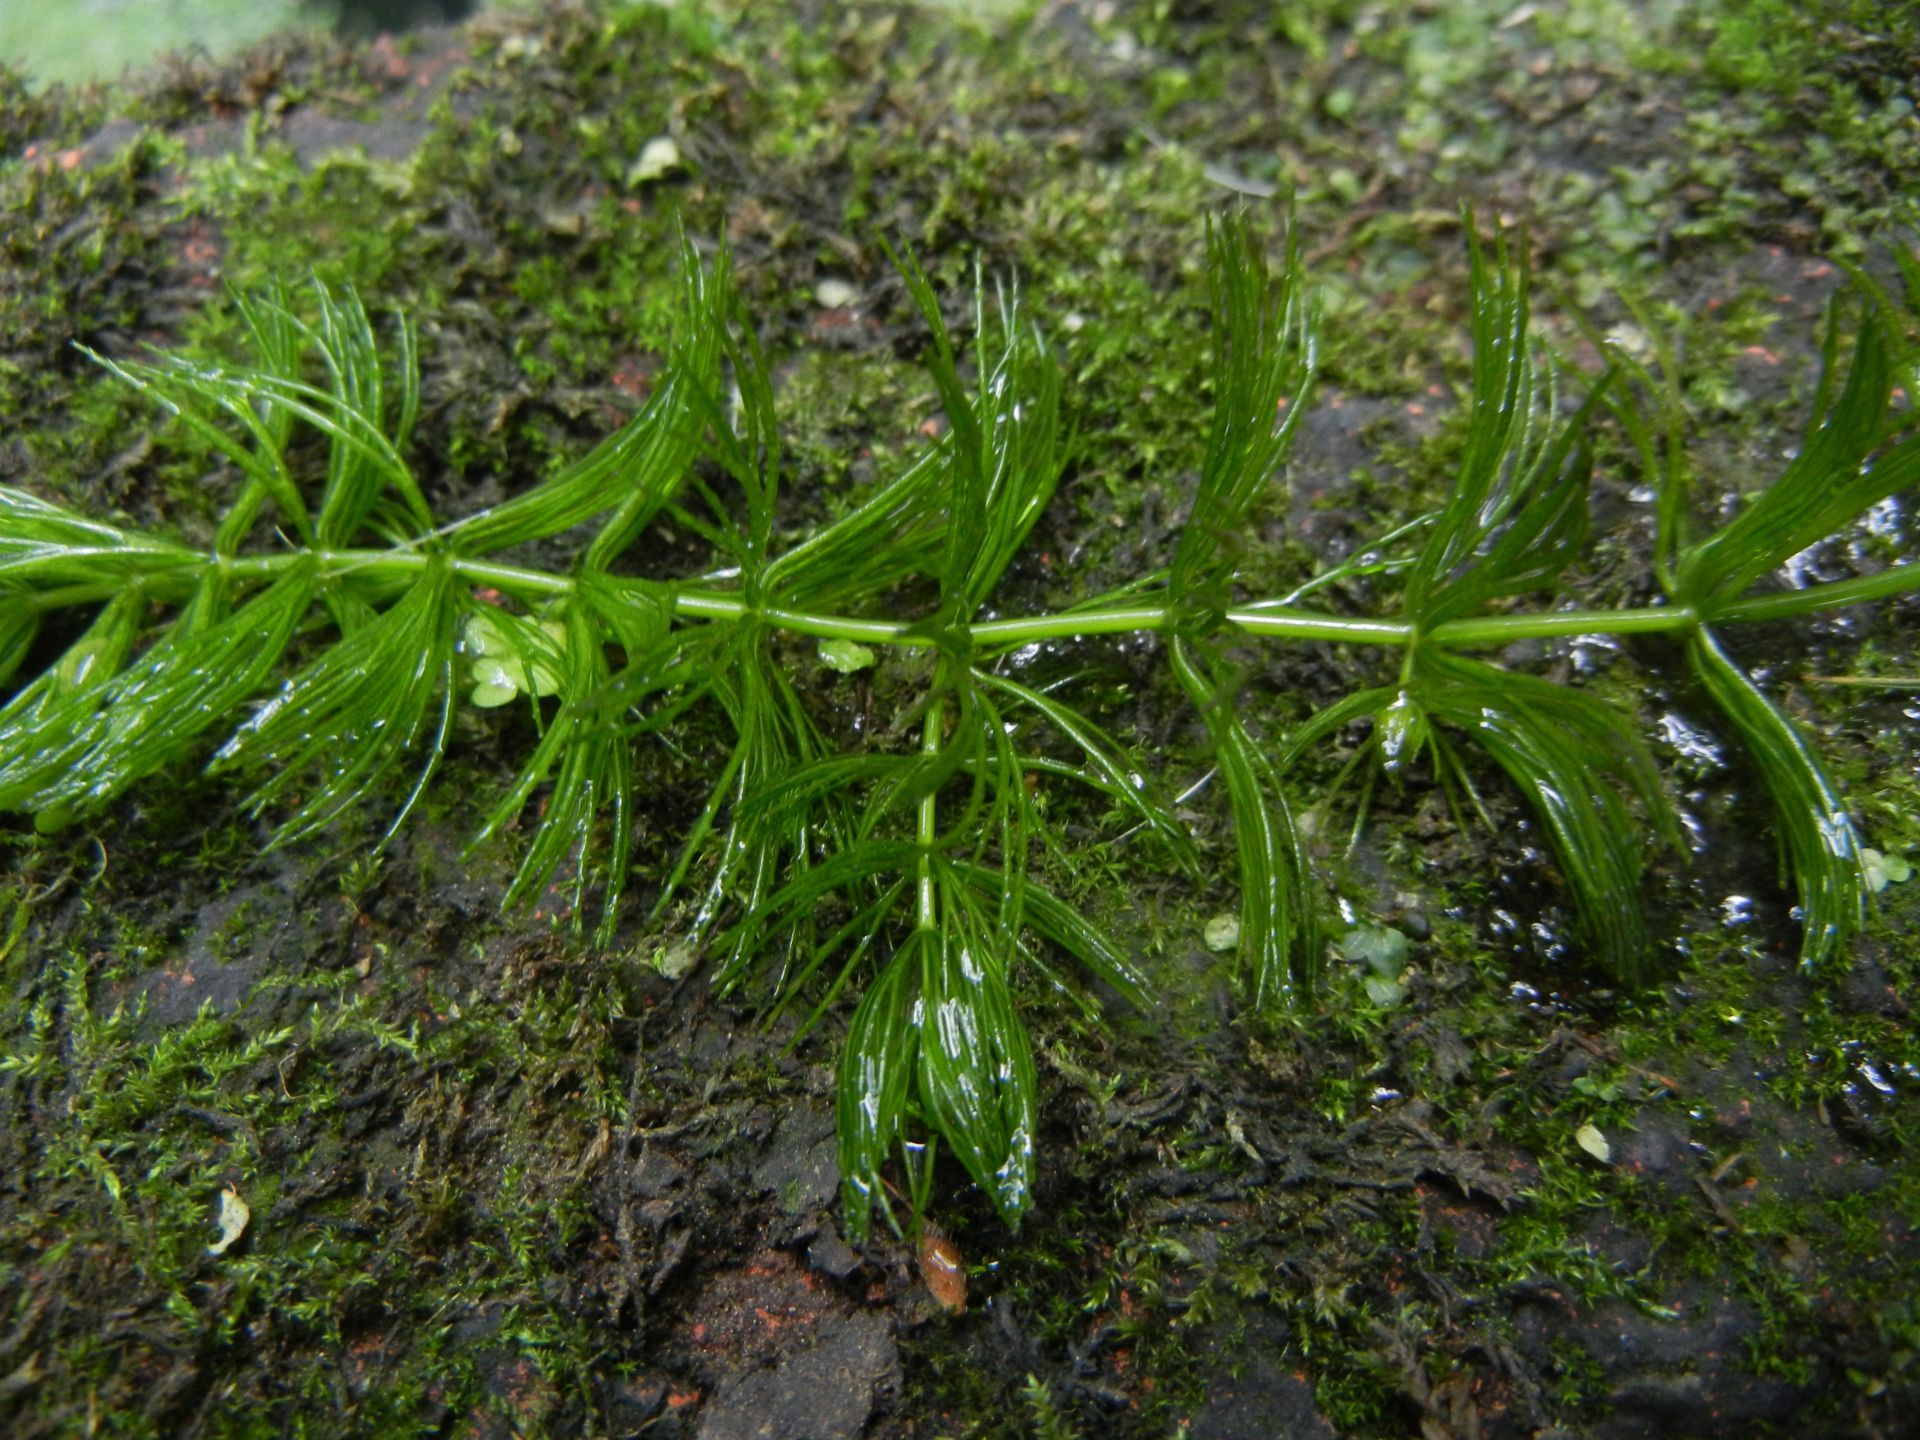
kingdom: Plantae
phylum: Tracheophyta
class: Magnoliopsida
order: Ceratophyllales
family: Ceratophyllaceae
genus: Ceratophyllum
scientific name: Ceratophyllum demersum
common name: Rigid hornwort
